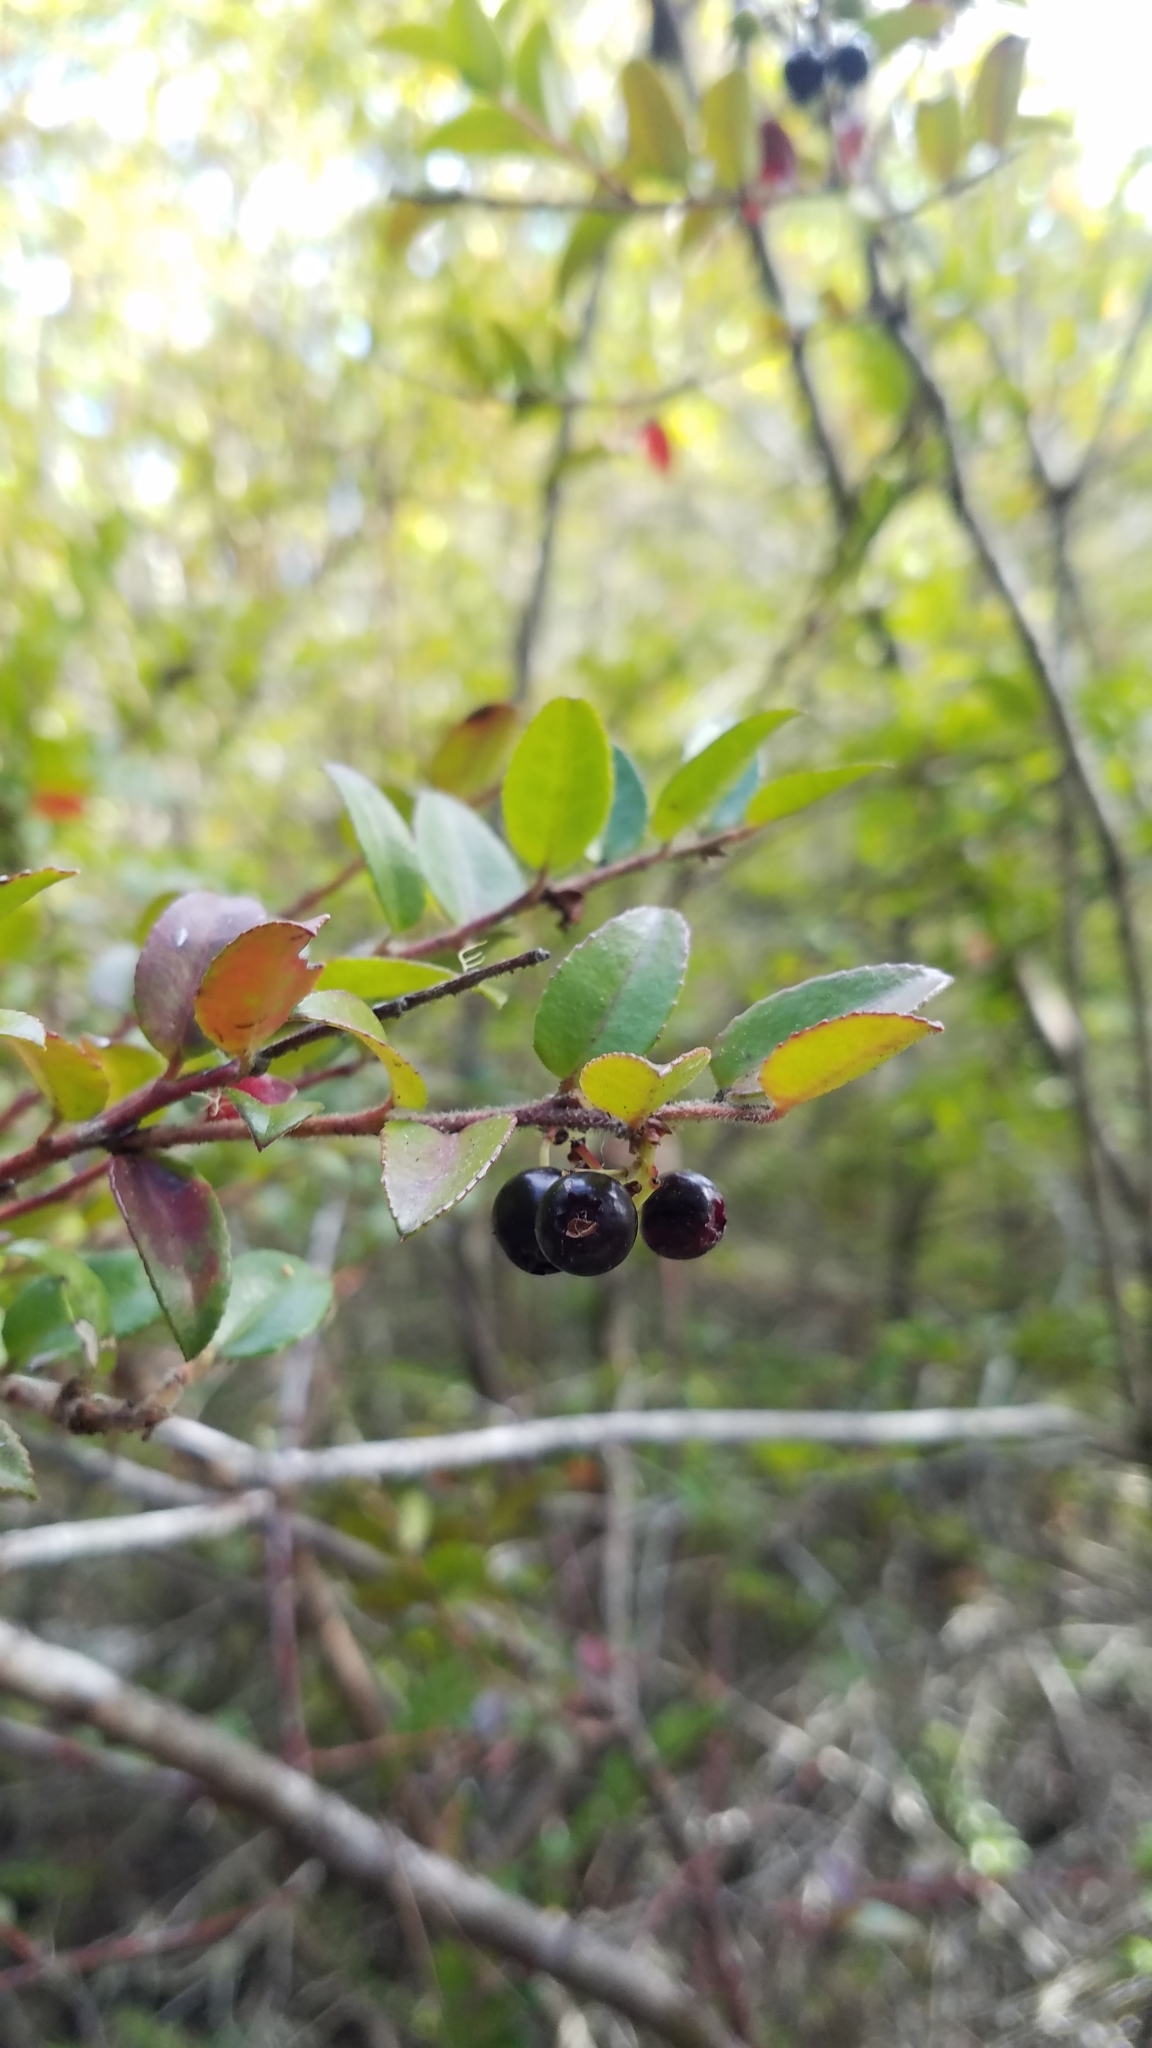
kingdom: Plantae
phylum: Tracheophyta
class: Magnoliopsida
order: Ericales
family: Ericaceae
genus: Vaccinium
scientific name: Vaccinium ovatum
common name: California-huckleberry
